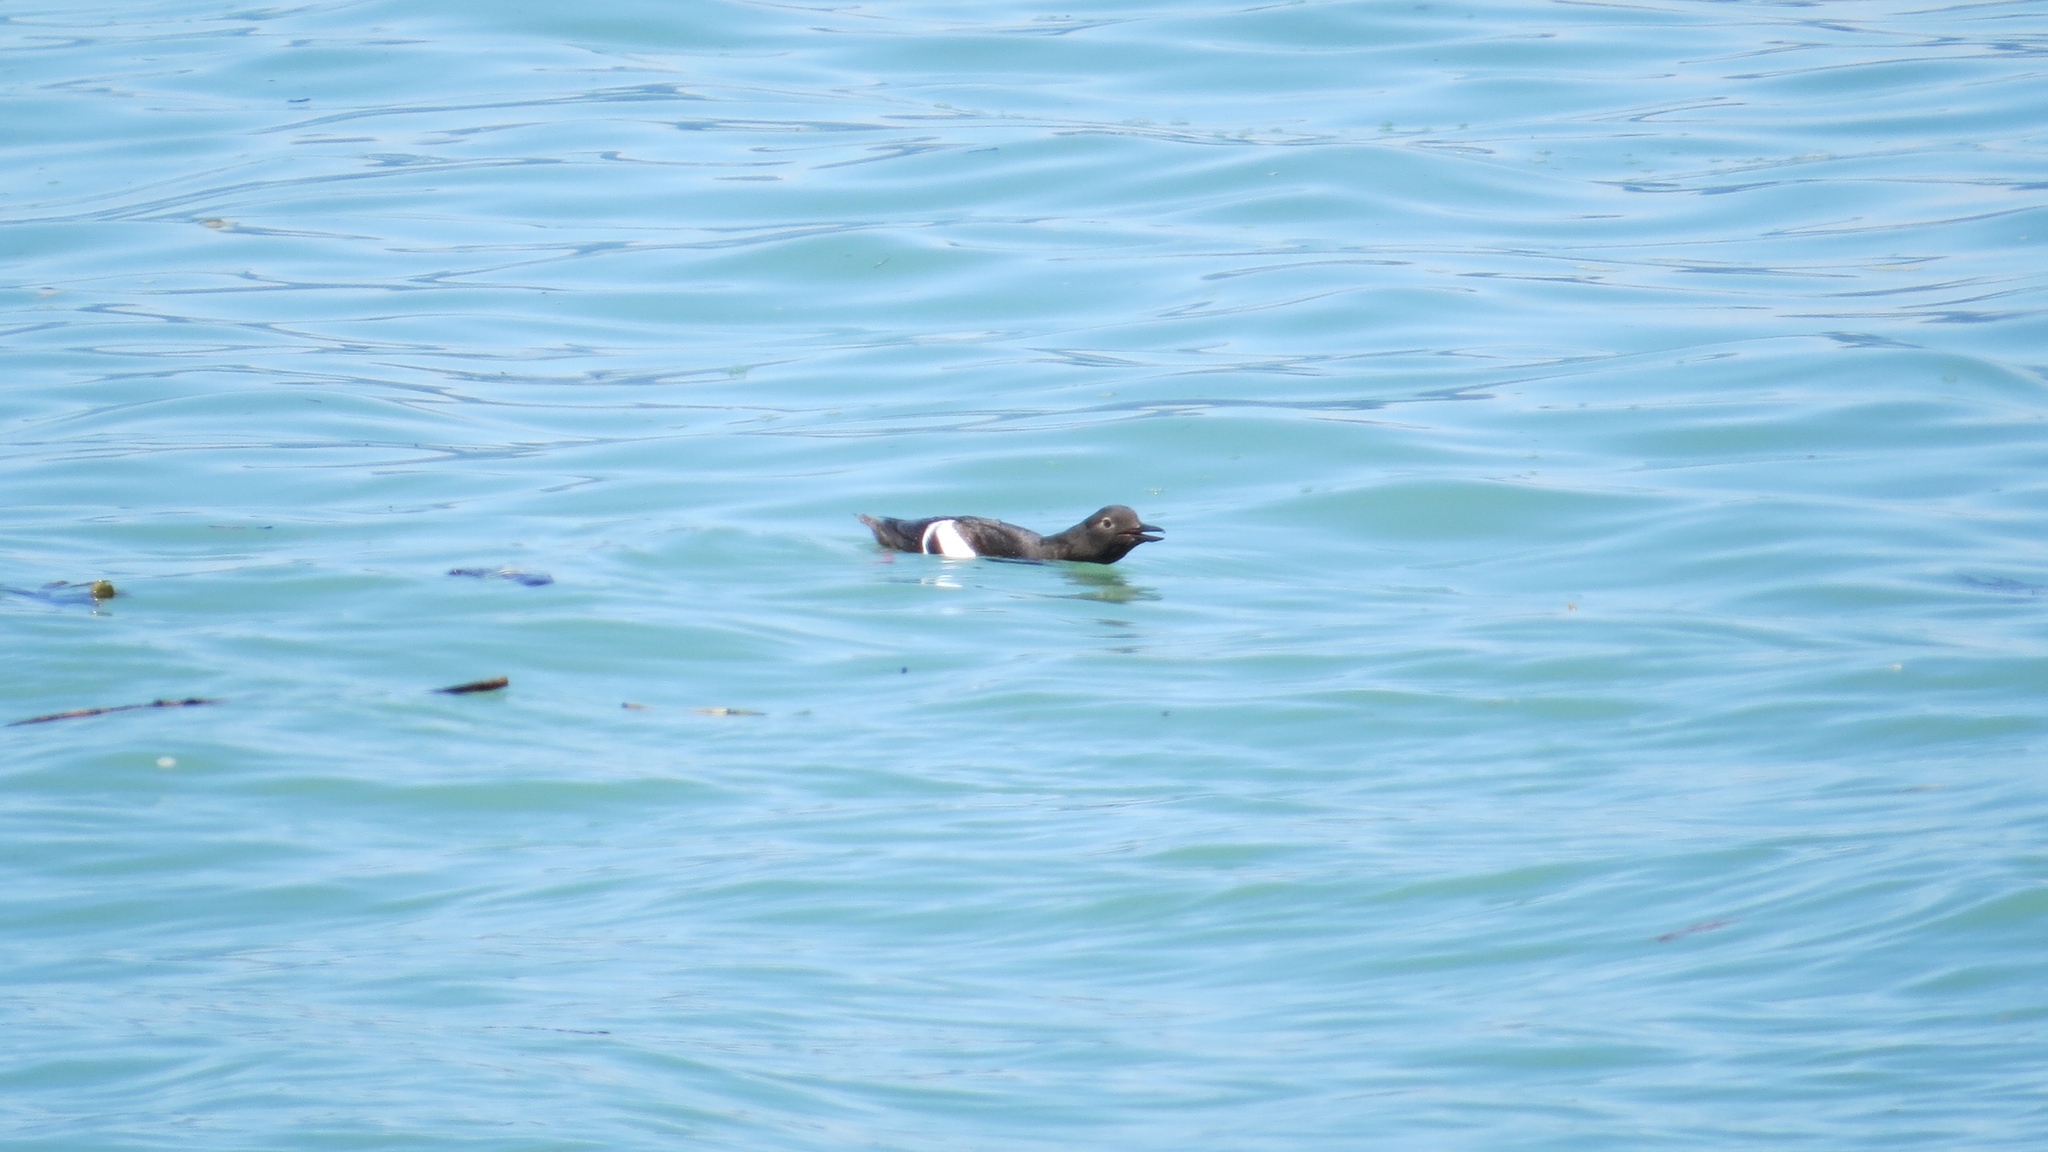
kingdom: Animalia
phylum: Chordata
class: Aves
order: Charadriiformes
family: Alcidae
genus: Cepphus
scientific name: Cepphus columba
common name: Pigeon guillemot
